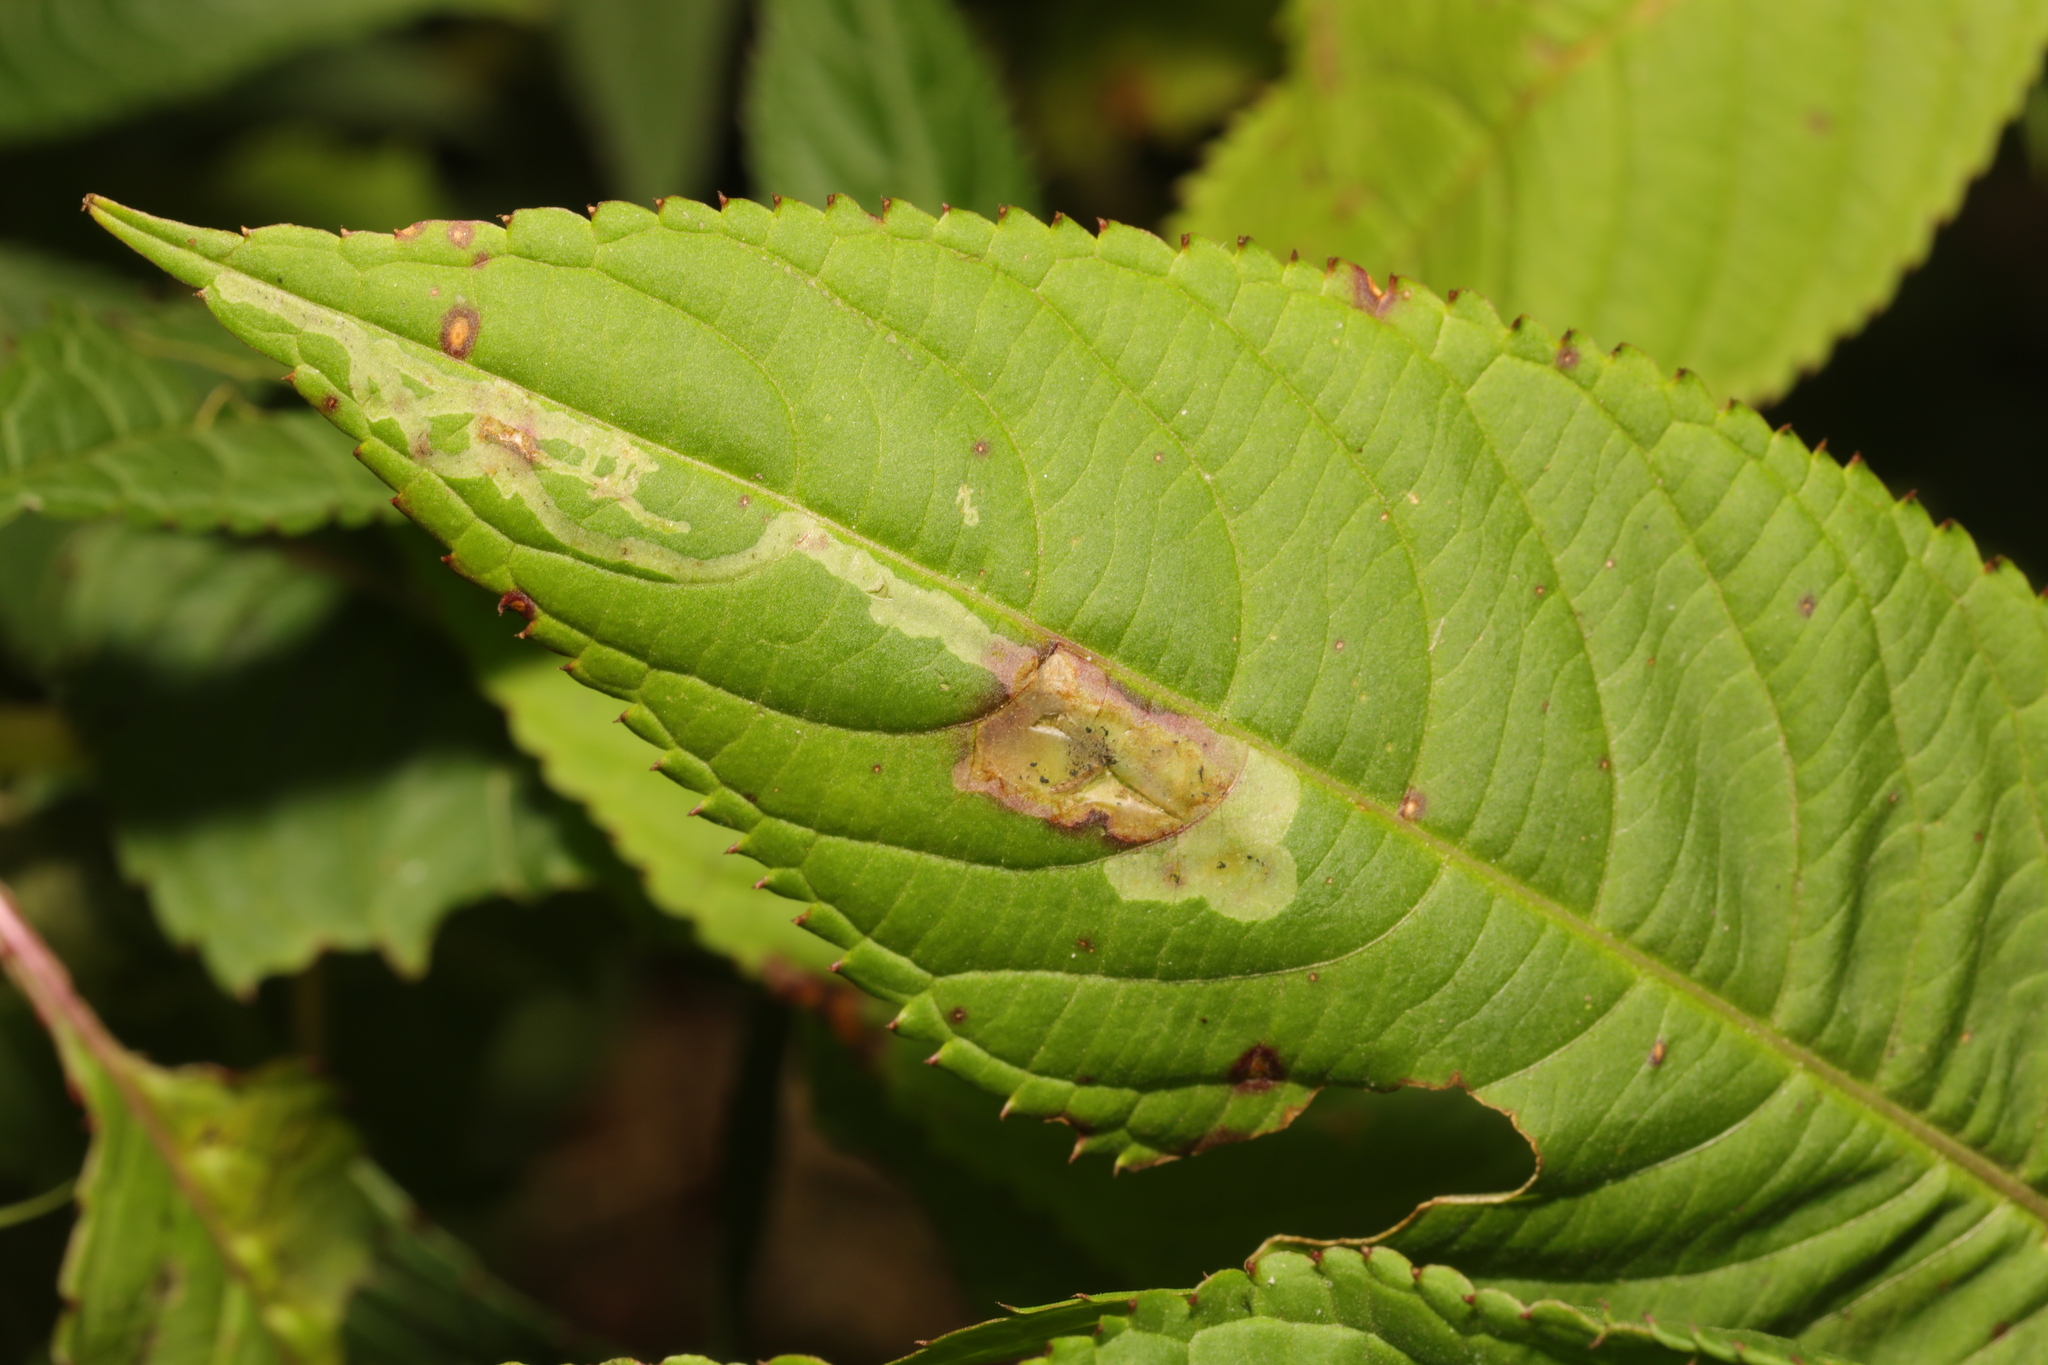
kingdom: Animalia
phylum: Arthropoda
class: Insecta
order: Diptera
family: Agromyzidae
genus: Phytoliriomyza
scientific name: Phytoliriomyza melampyga
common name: Jewelweed leaf-miner fly
